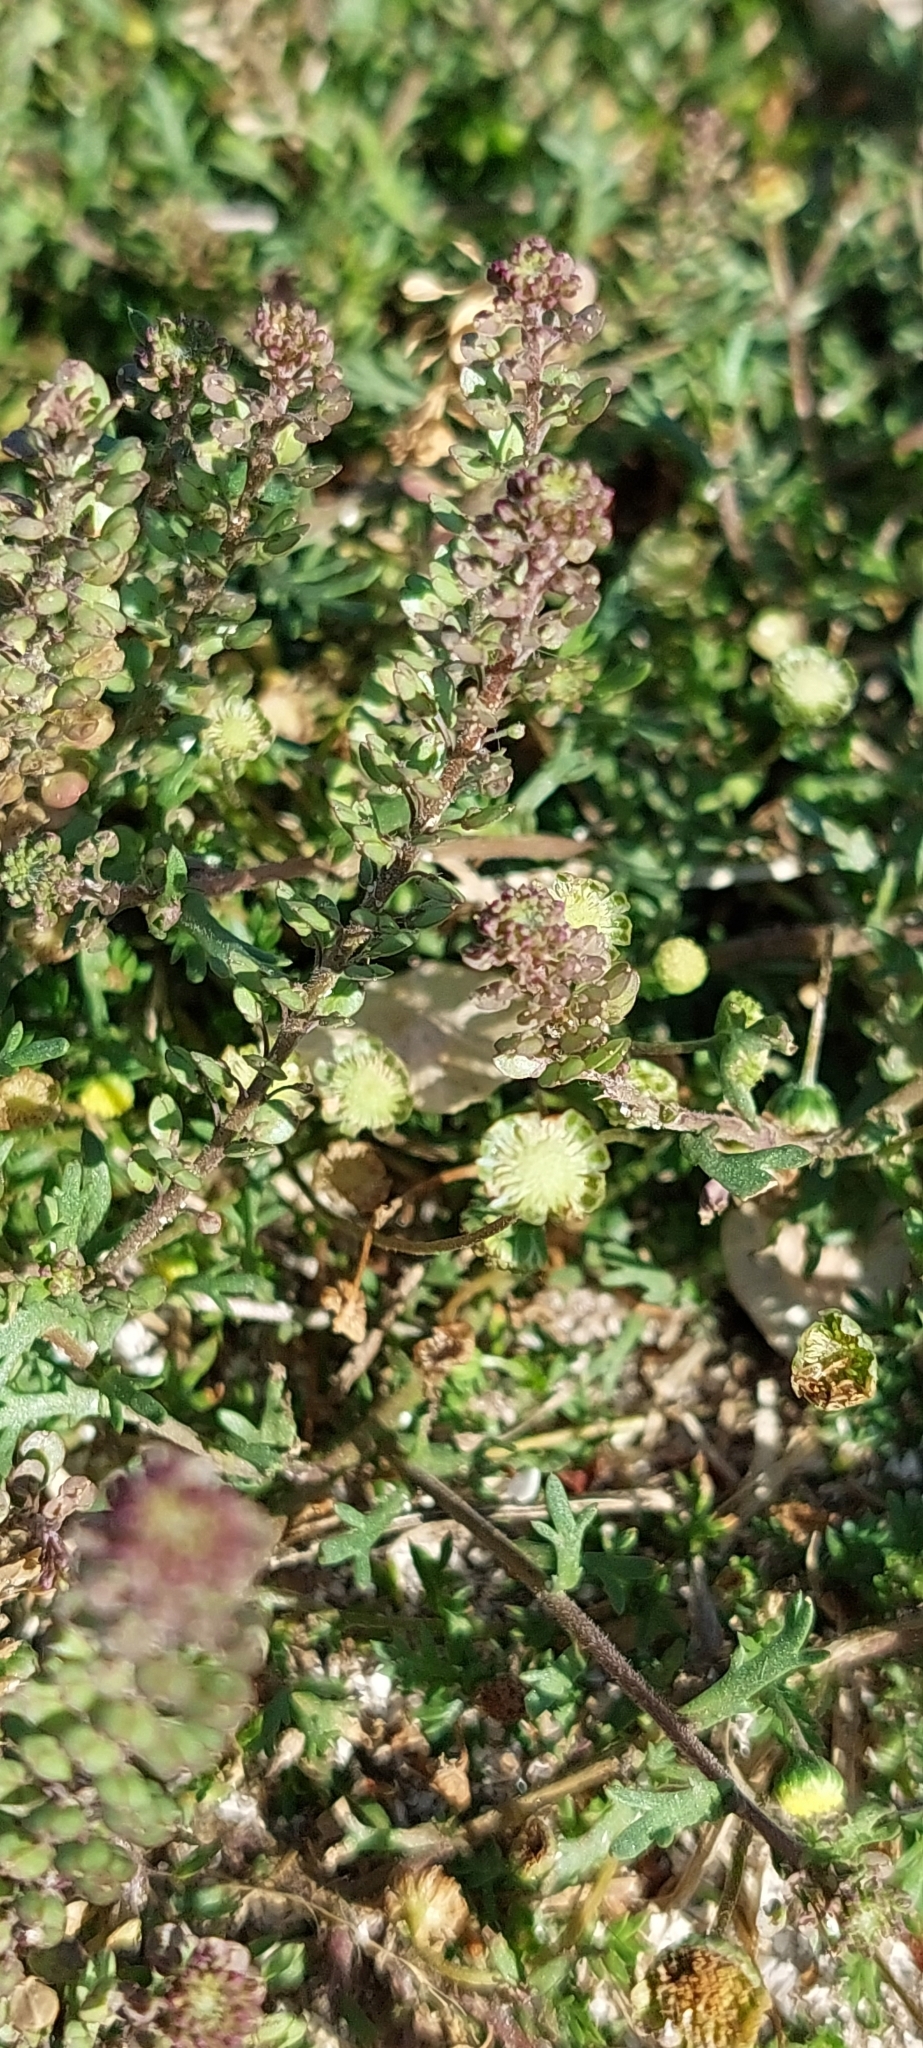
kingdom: Plantae
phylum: Tracheophyta
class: Magnoliopsida
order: Brassicales
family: Brassicaceae
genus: Lepidium
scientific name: Lepidium auriculatum
